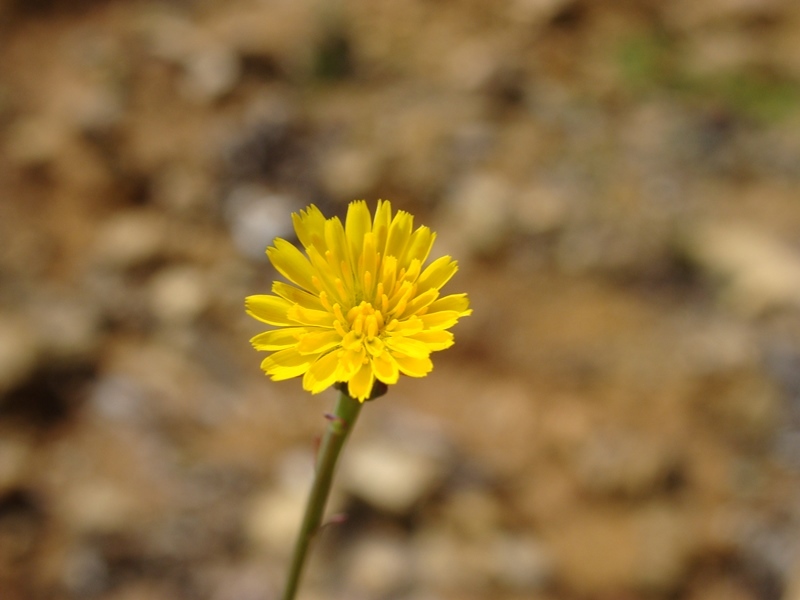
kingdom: Plantae
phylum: Tracheophyta
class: Magnoliopsida
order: Asterales
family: Asteraceae
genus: Pyrrhopappus
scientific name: Pyrrhopappus pauciflorus
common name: Texas false dandelion
